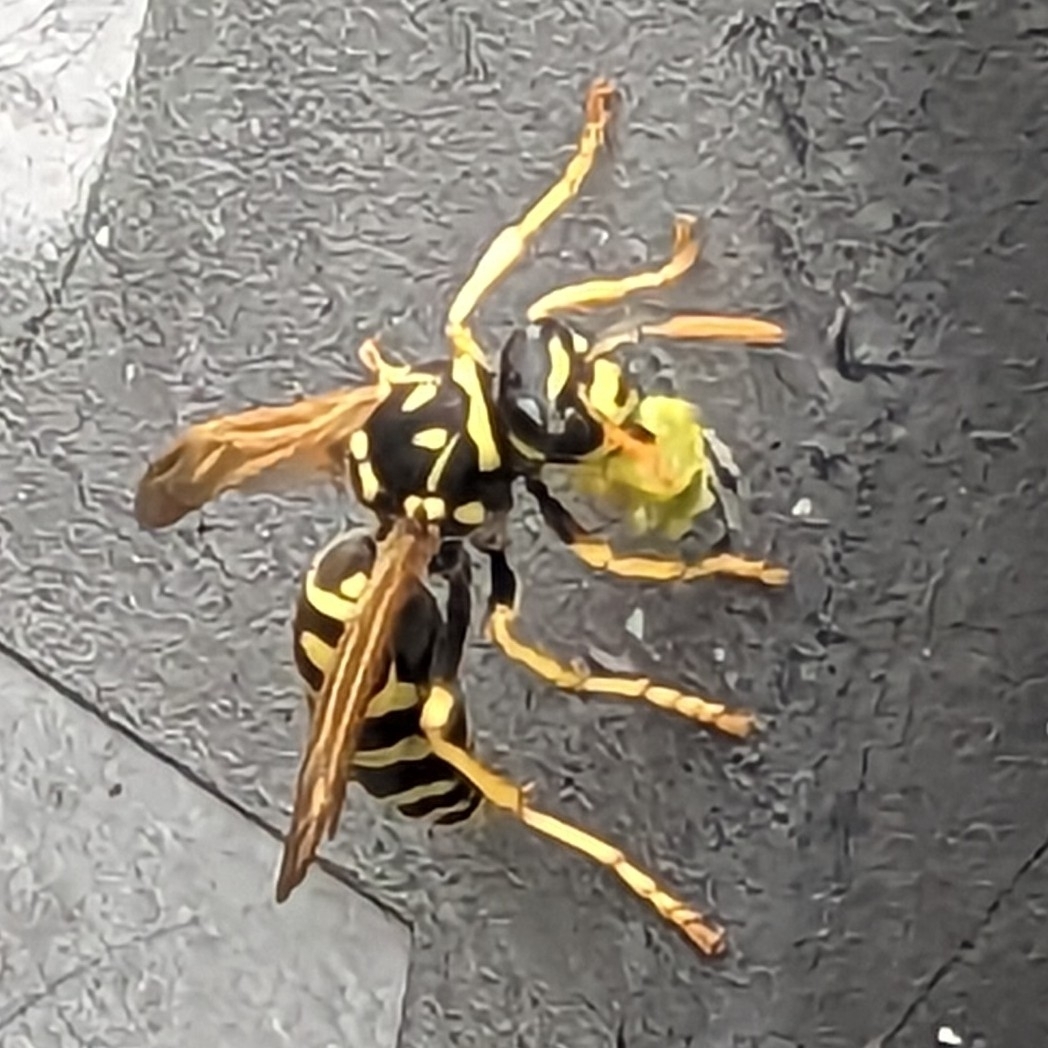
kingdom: Animalia
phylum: Arthropoda
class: Insecta
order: Hymenoptera
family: Eumenidae
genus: Polistes
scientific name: Polistes dominula
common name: Paper wasp
